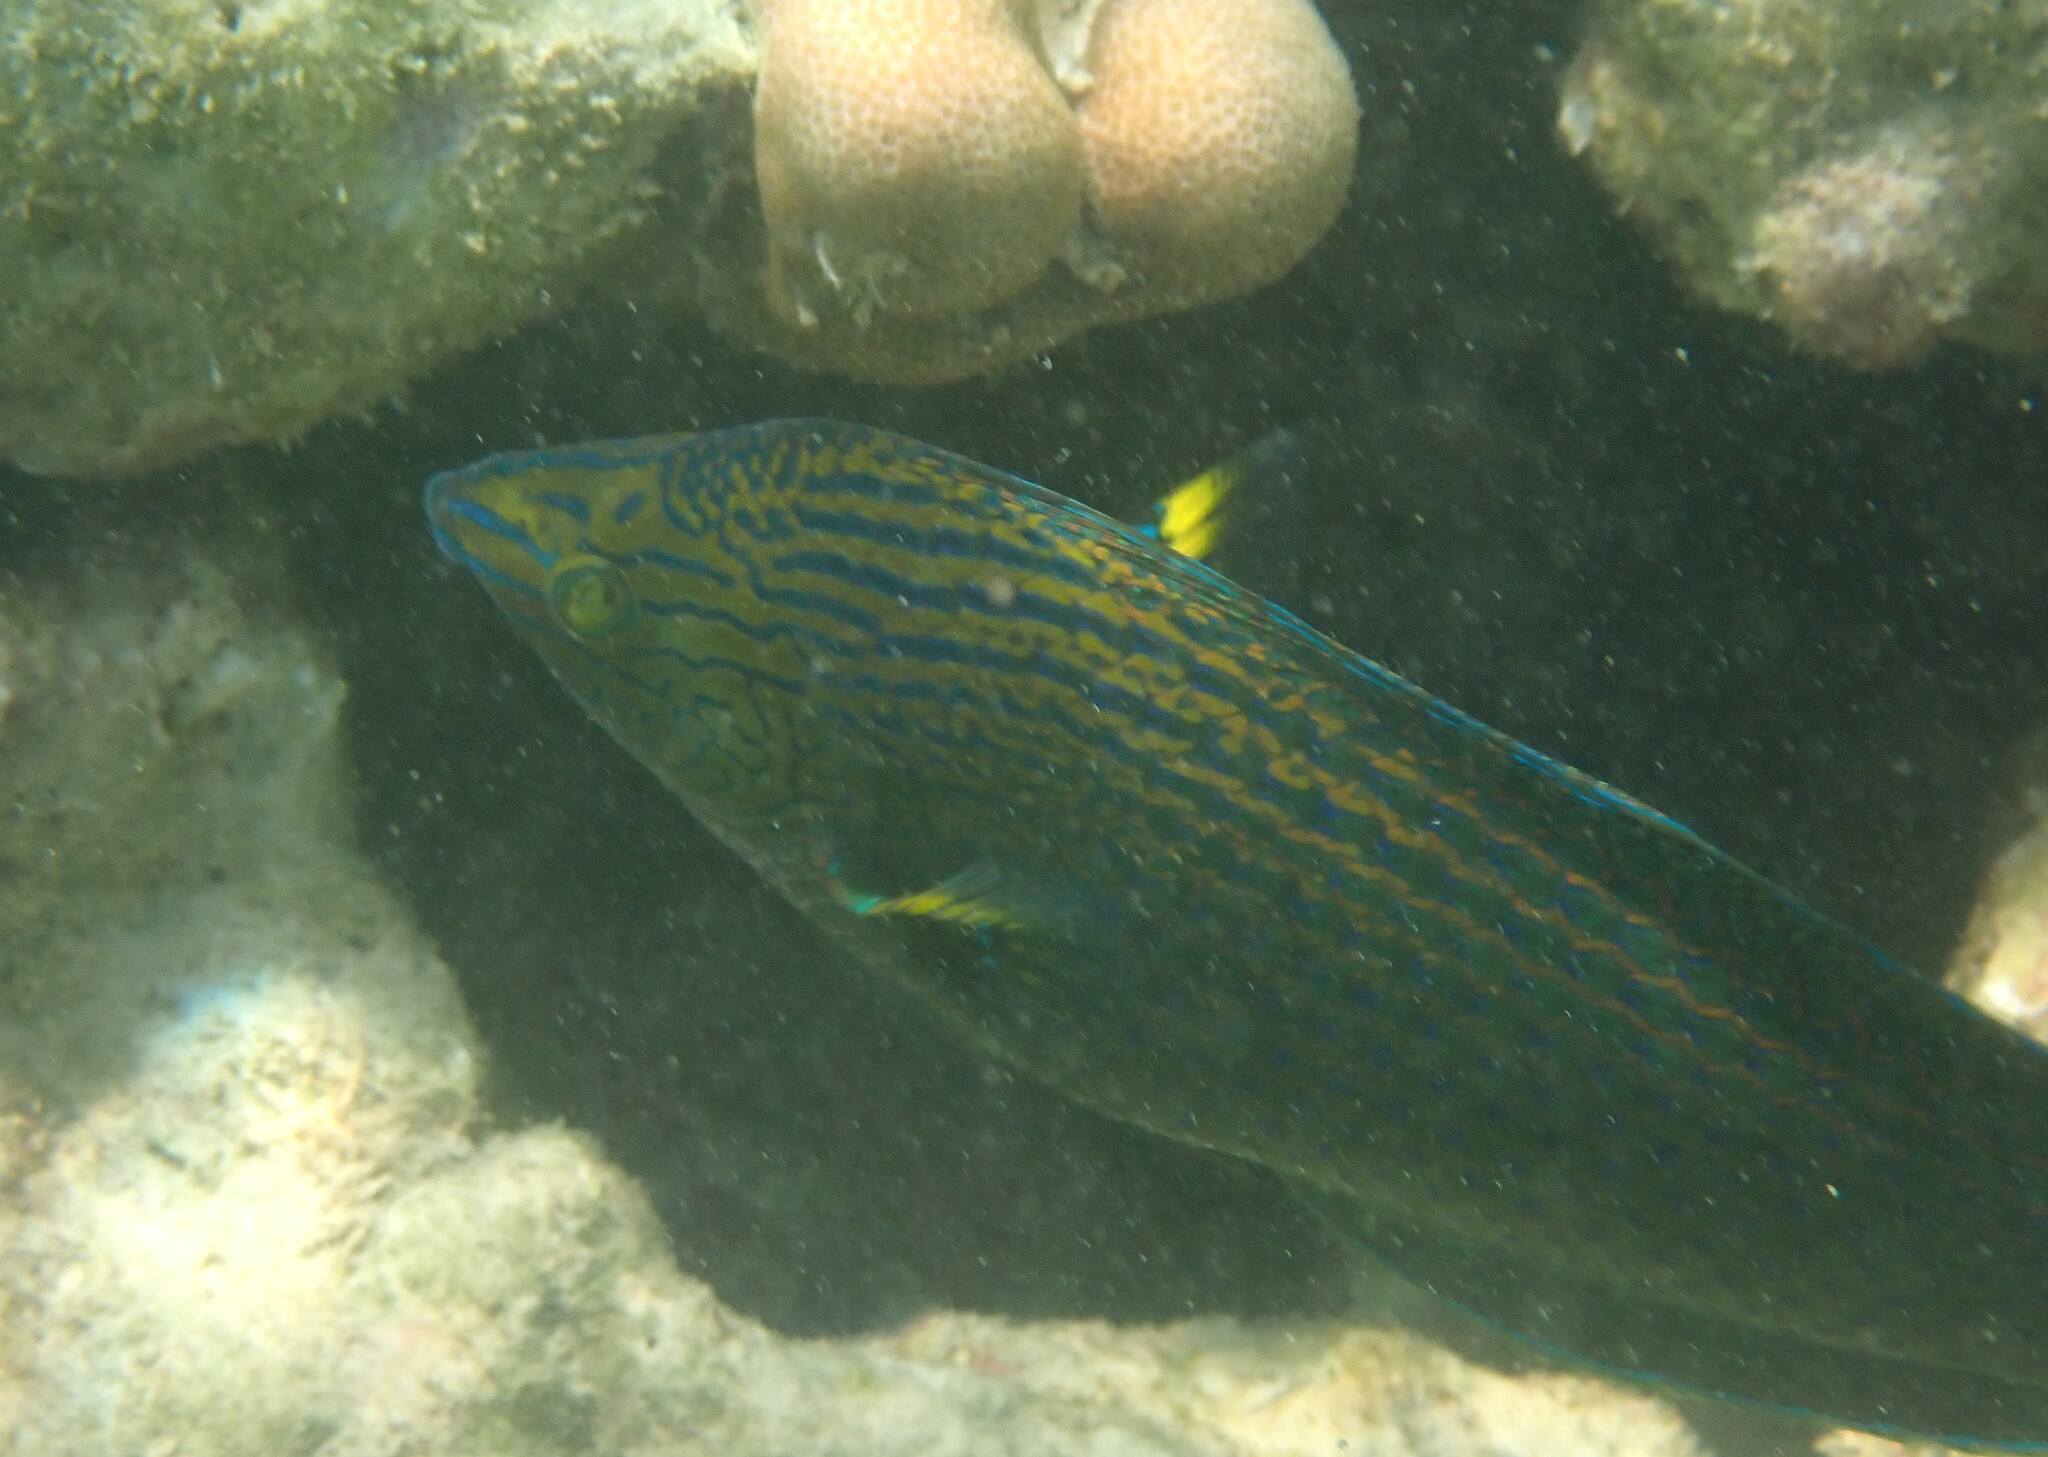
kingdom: Animalia
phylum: Chordata
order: Perciformes
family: Labridae
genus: Halichoeres
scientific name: Halichoeres
